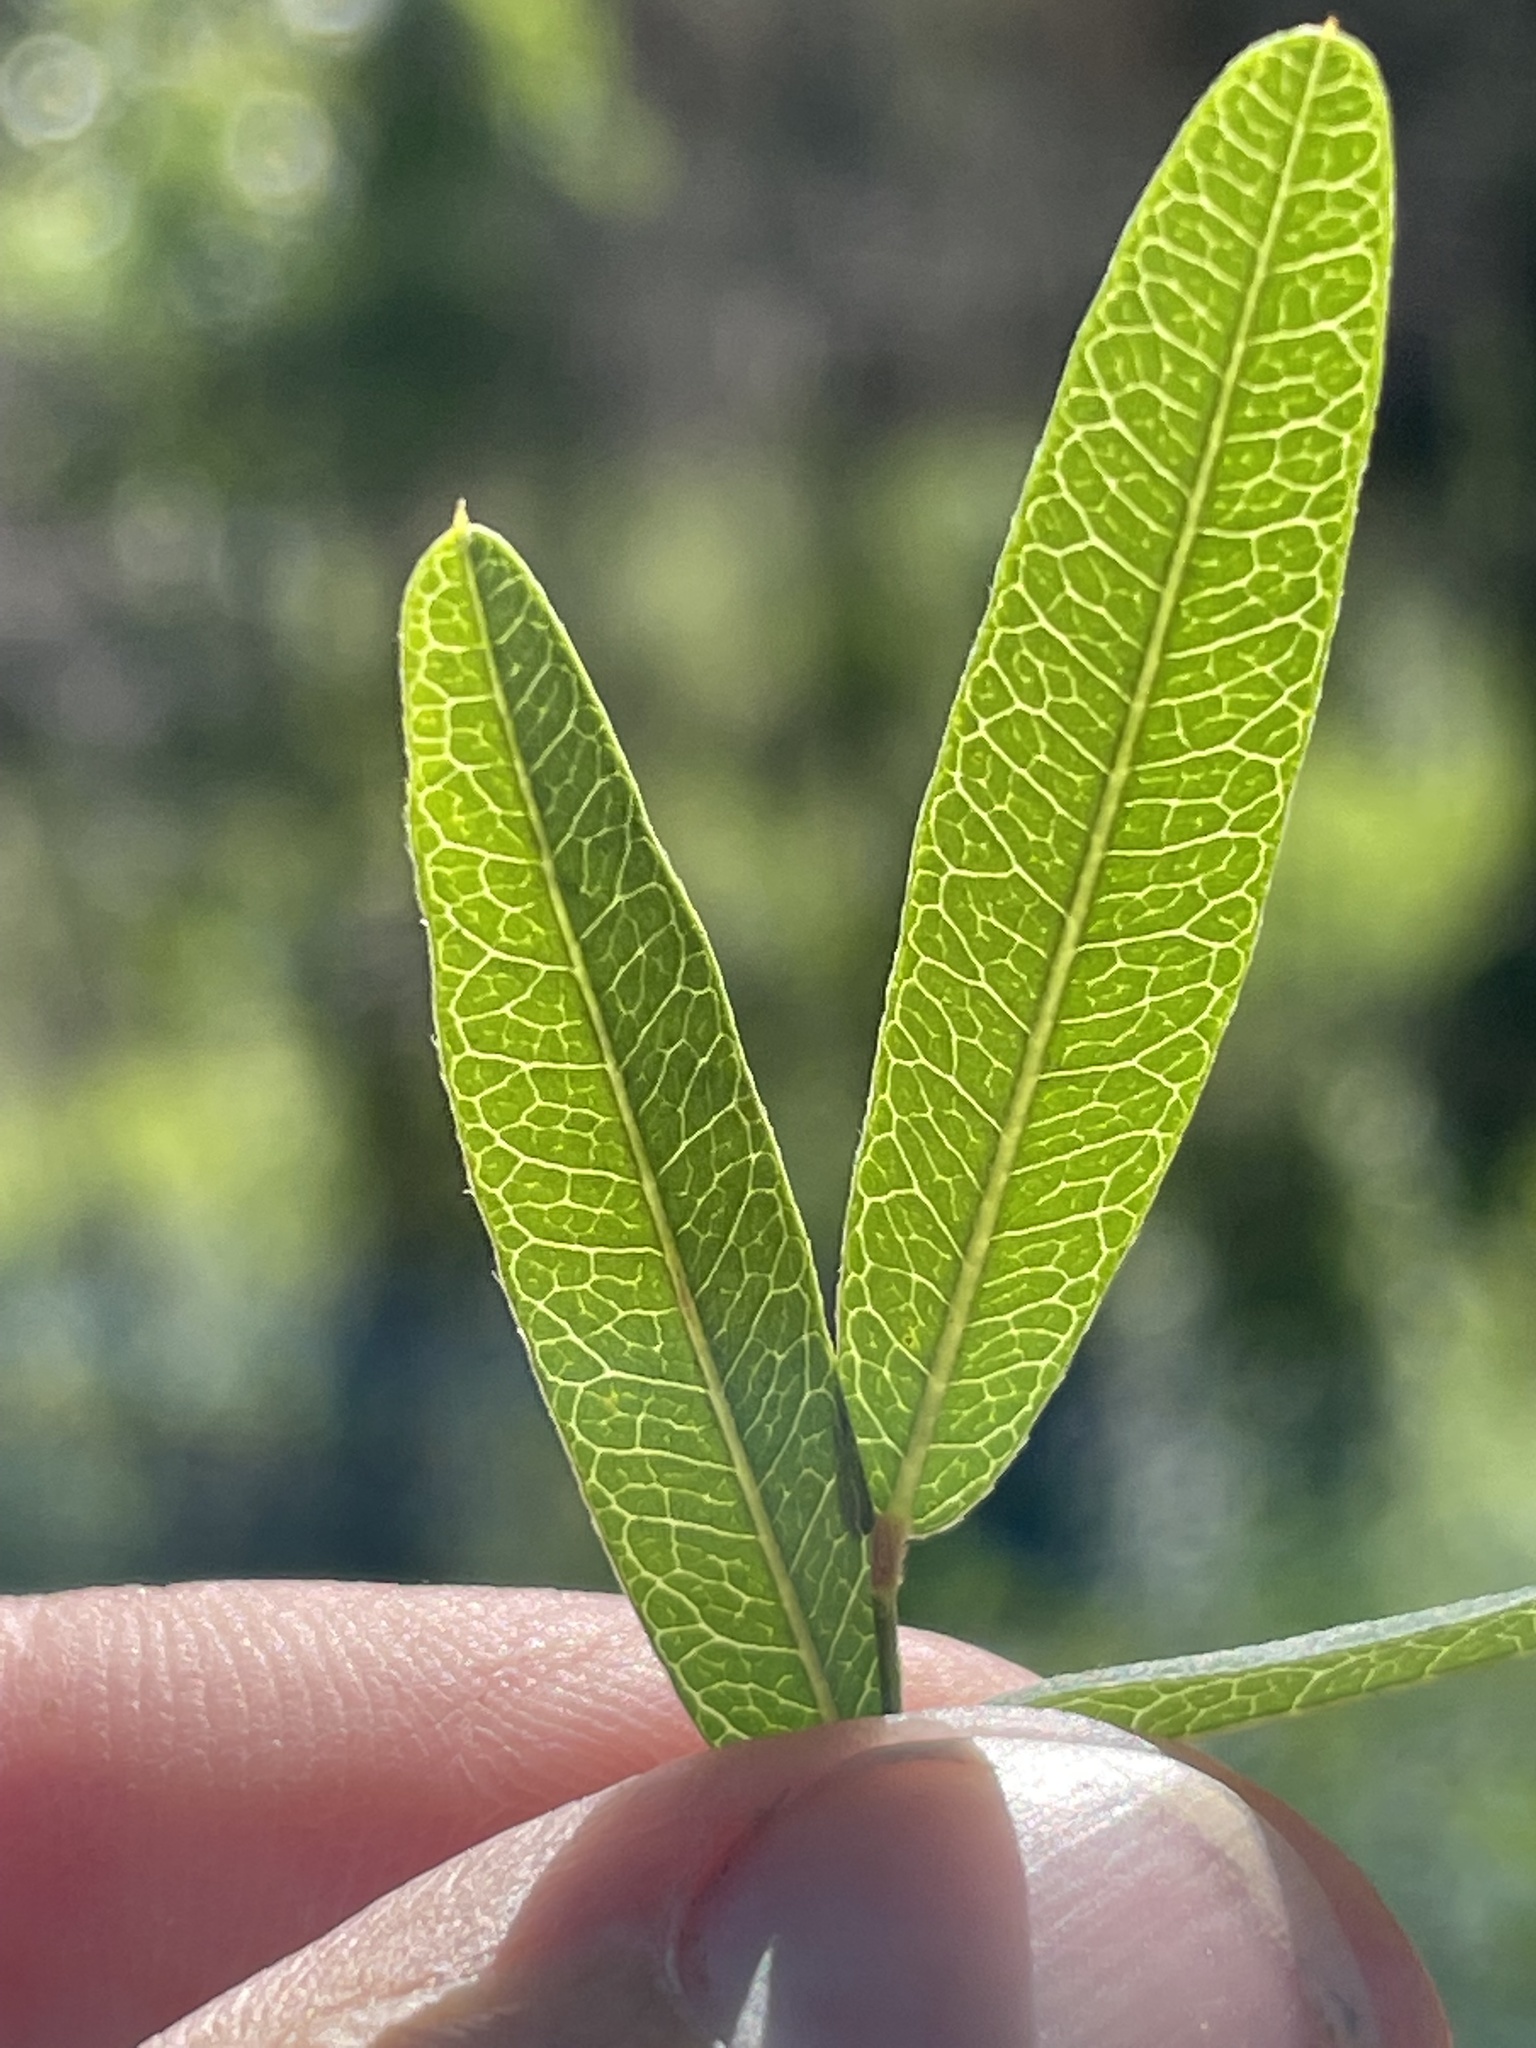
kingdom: Plantae
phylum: Tracheophyta
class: Magnoliopsida
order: Fabales
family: Fabaceae
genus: Lespedeza
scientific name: Lespedeza virginica
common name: Slender bush-clover
